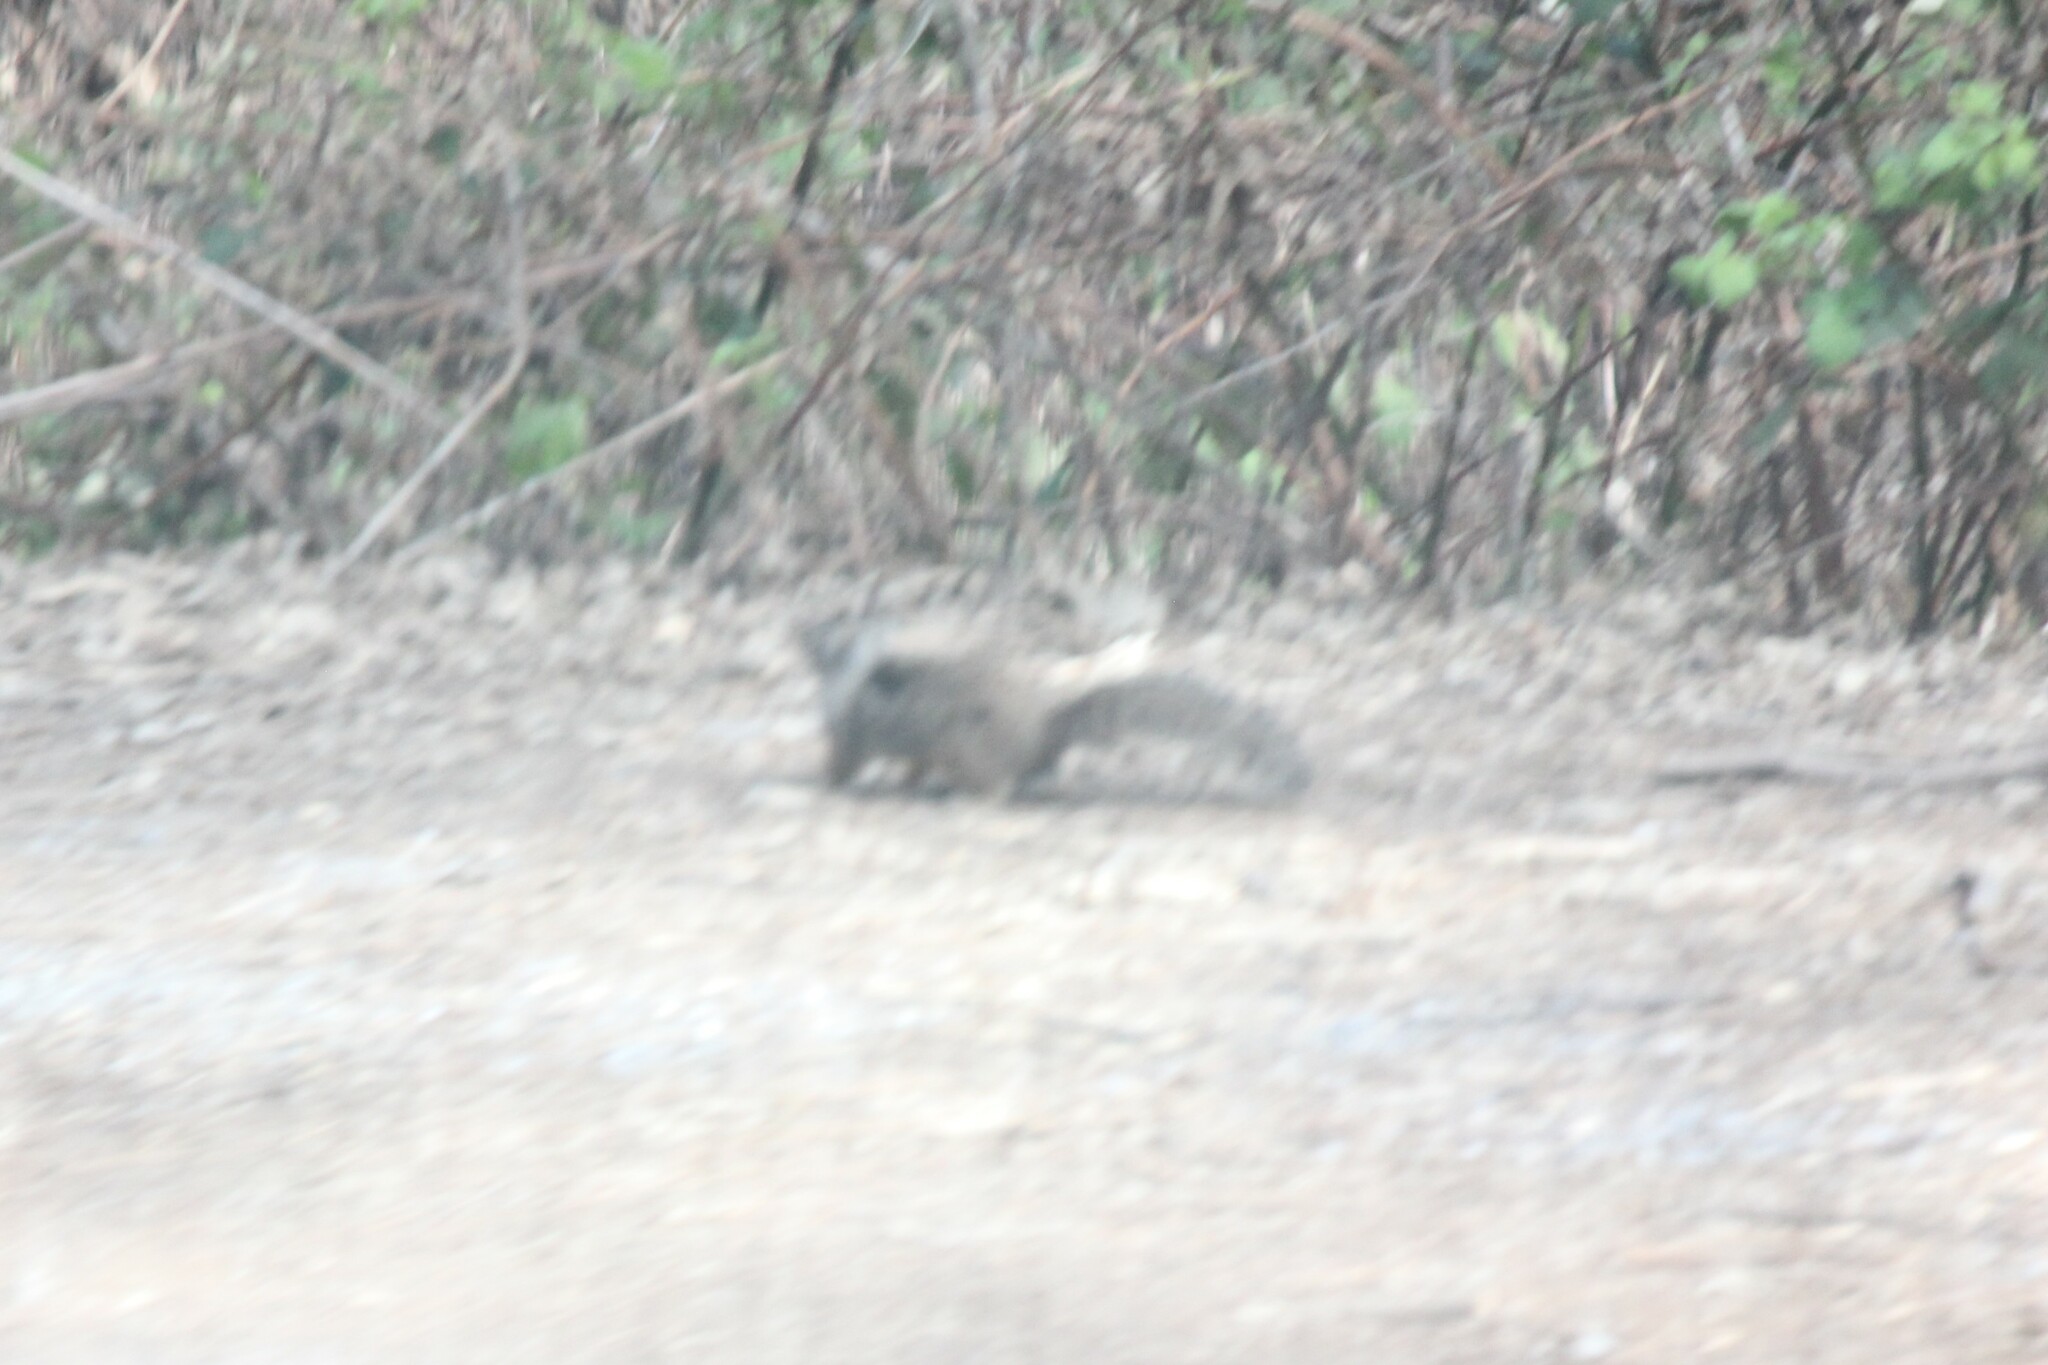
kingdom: Animalia
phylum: Chordata
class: Mammalia
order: Rodentia
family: Sciuridae
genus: Otospermophilus
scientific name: Otospermophilus beecheyi
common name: California ground squirrel
